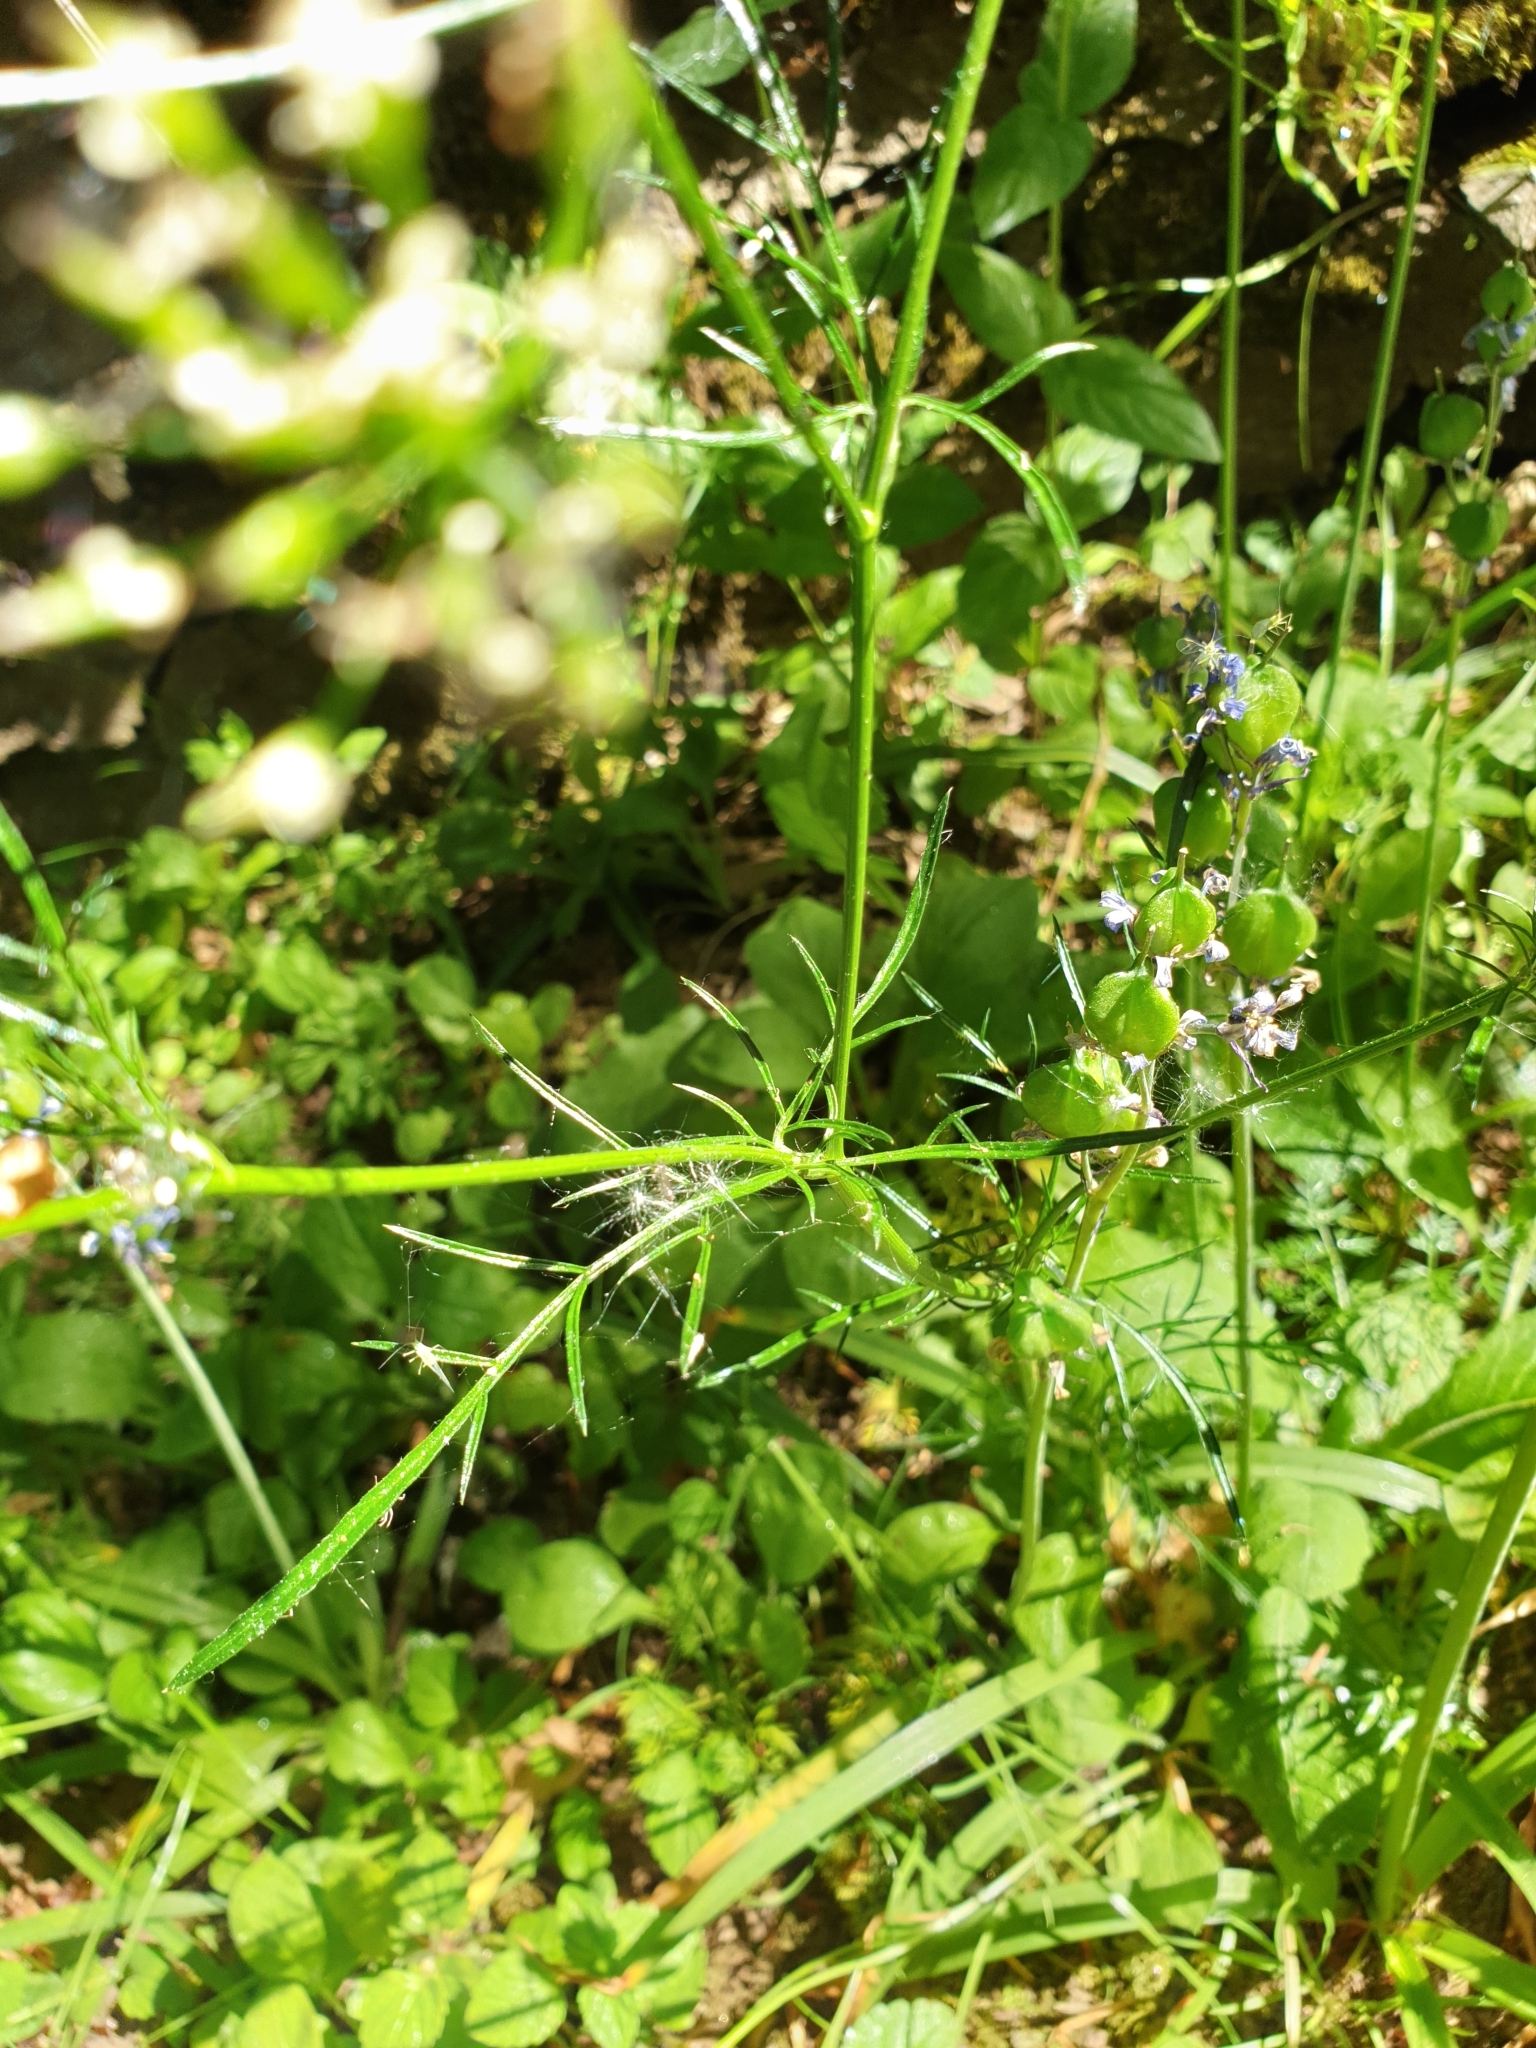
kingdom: Plantae
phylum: Tracheophyta
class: Magnoliopsida
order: Apiales
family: Apiaceae
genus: Conopodium
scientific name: Conopodium majus
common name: Pignut
